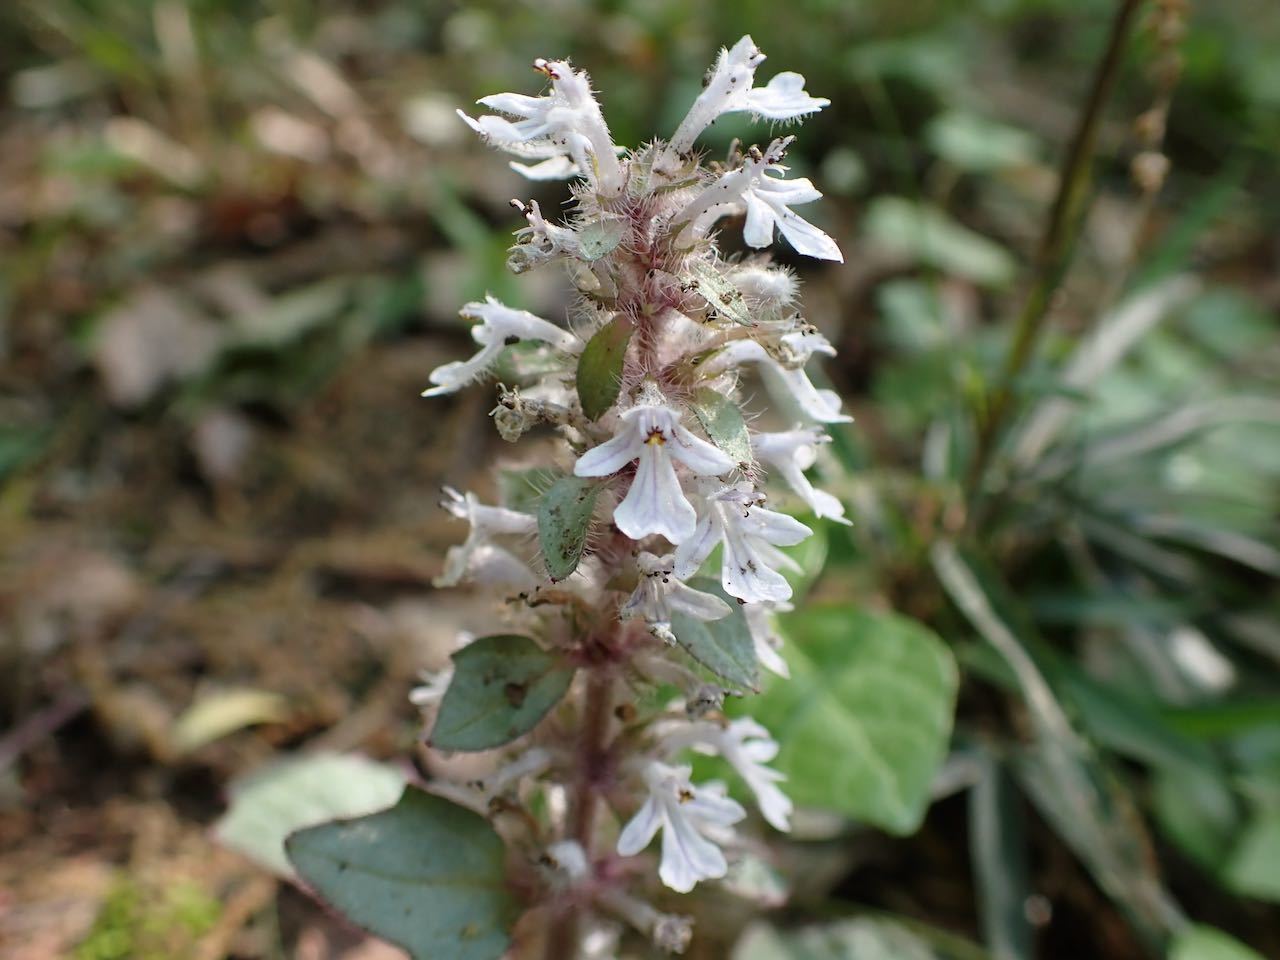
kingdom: Plantae
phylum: Tracheophyta
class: Magnoliopsida
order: Lamiales
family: Lamiaceae
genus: Ajuga
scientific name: Ajuga nipponensis
